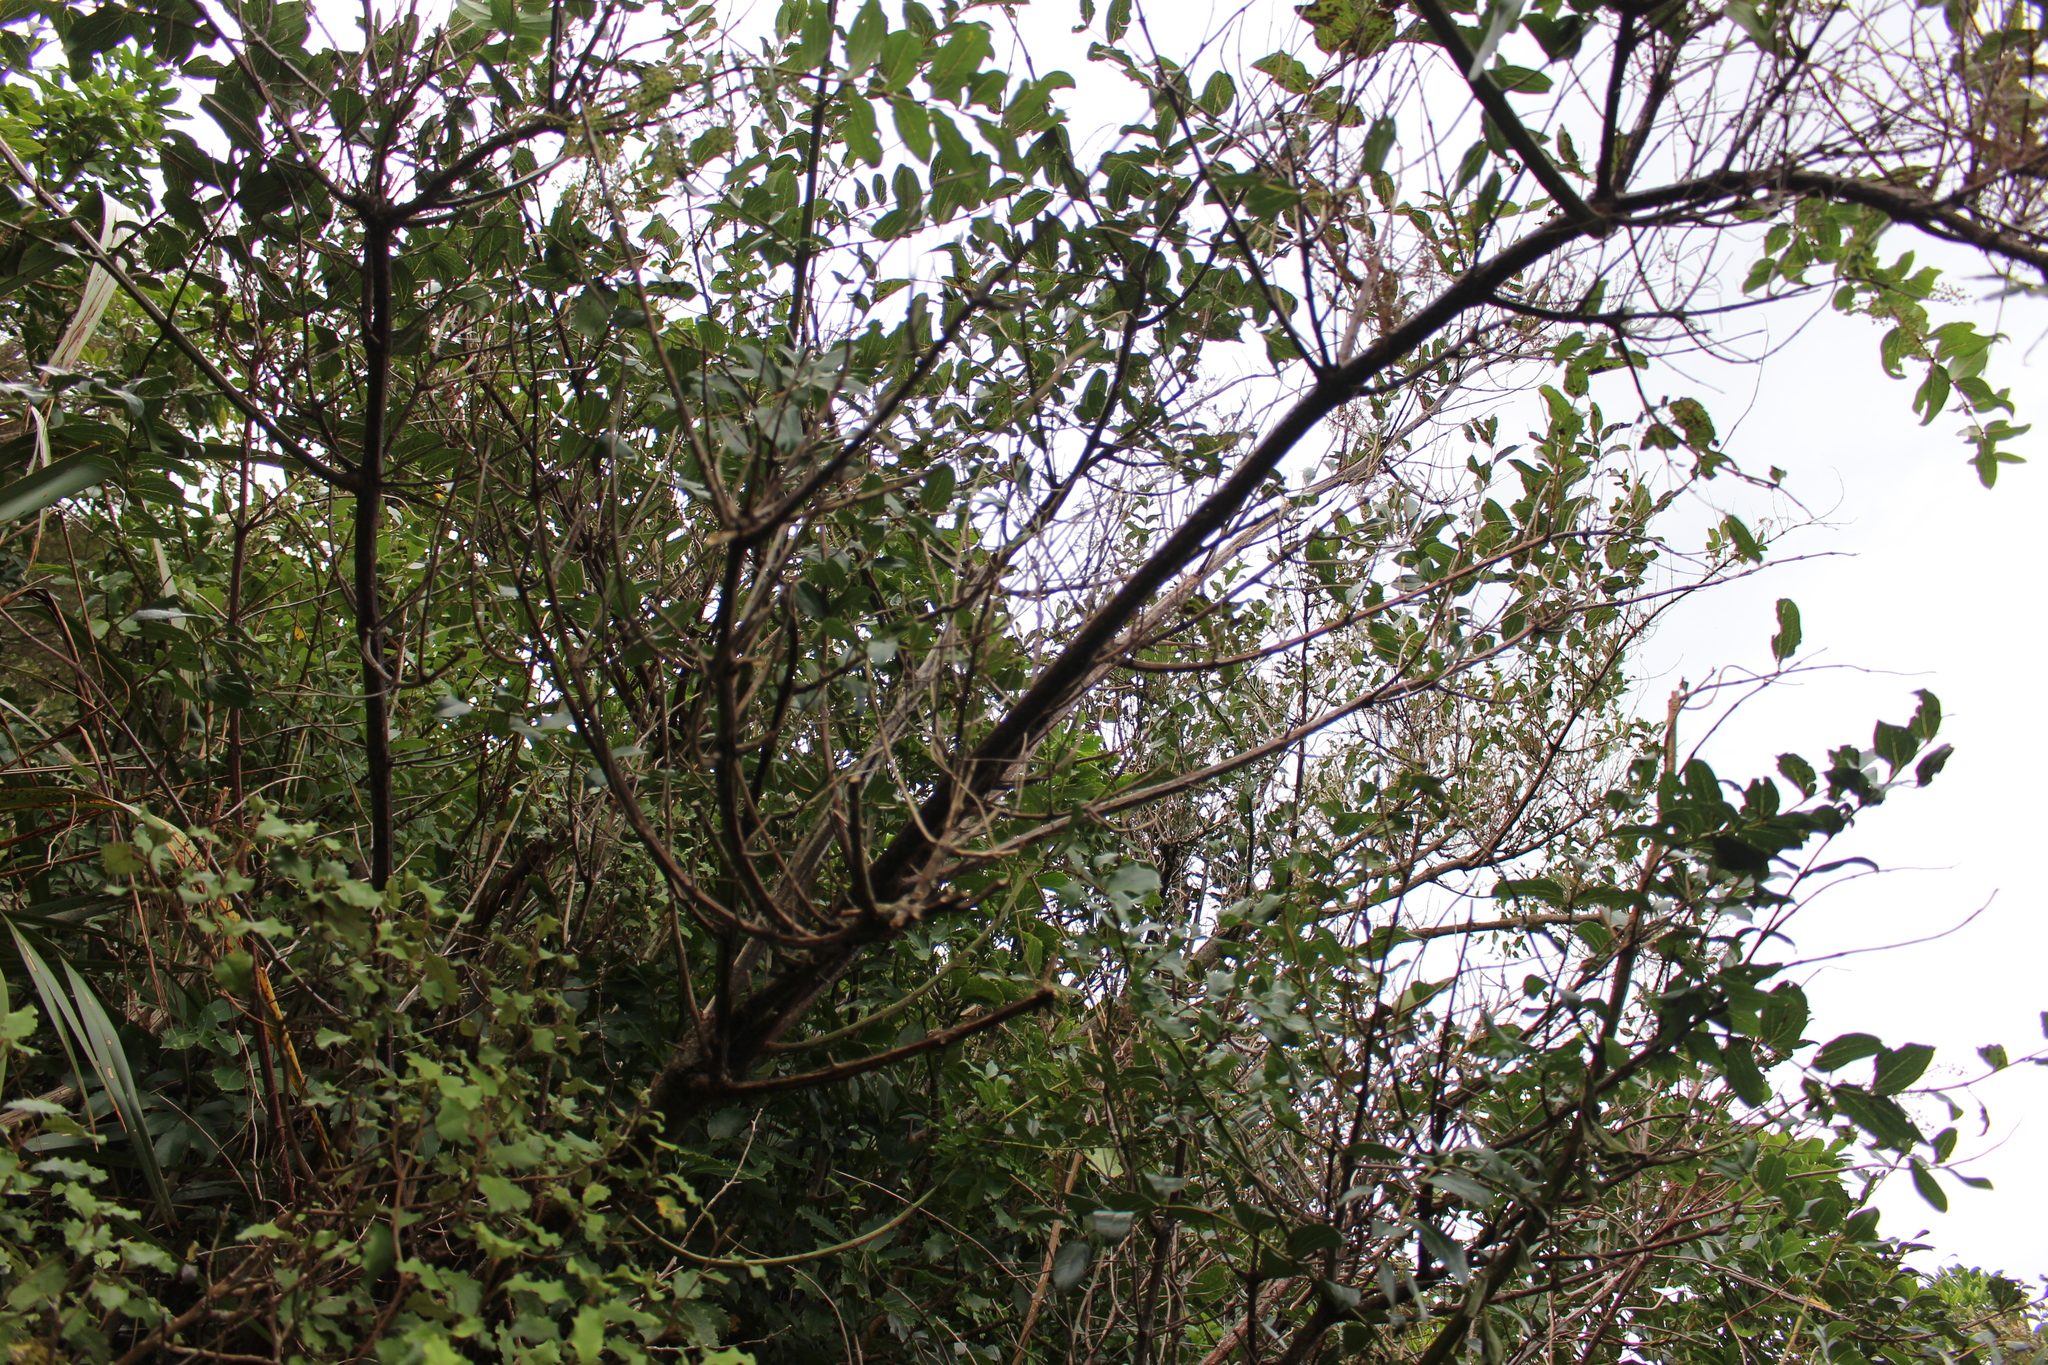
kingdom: Plantae
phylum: Tracheophyta
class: Magnoliopsida
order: Cucurbitales
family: Coriariaceae
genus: Coriaria
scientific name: Coriaria arborea
